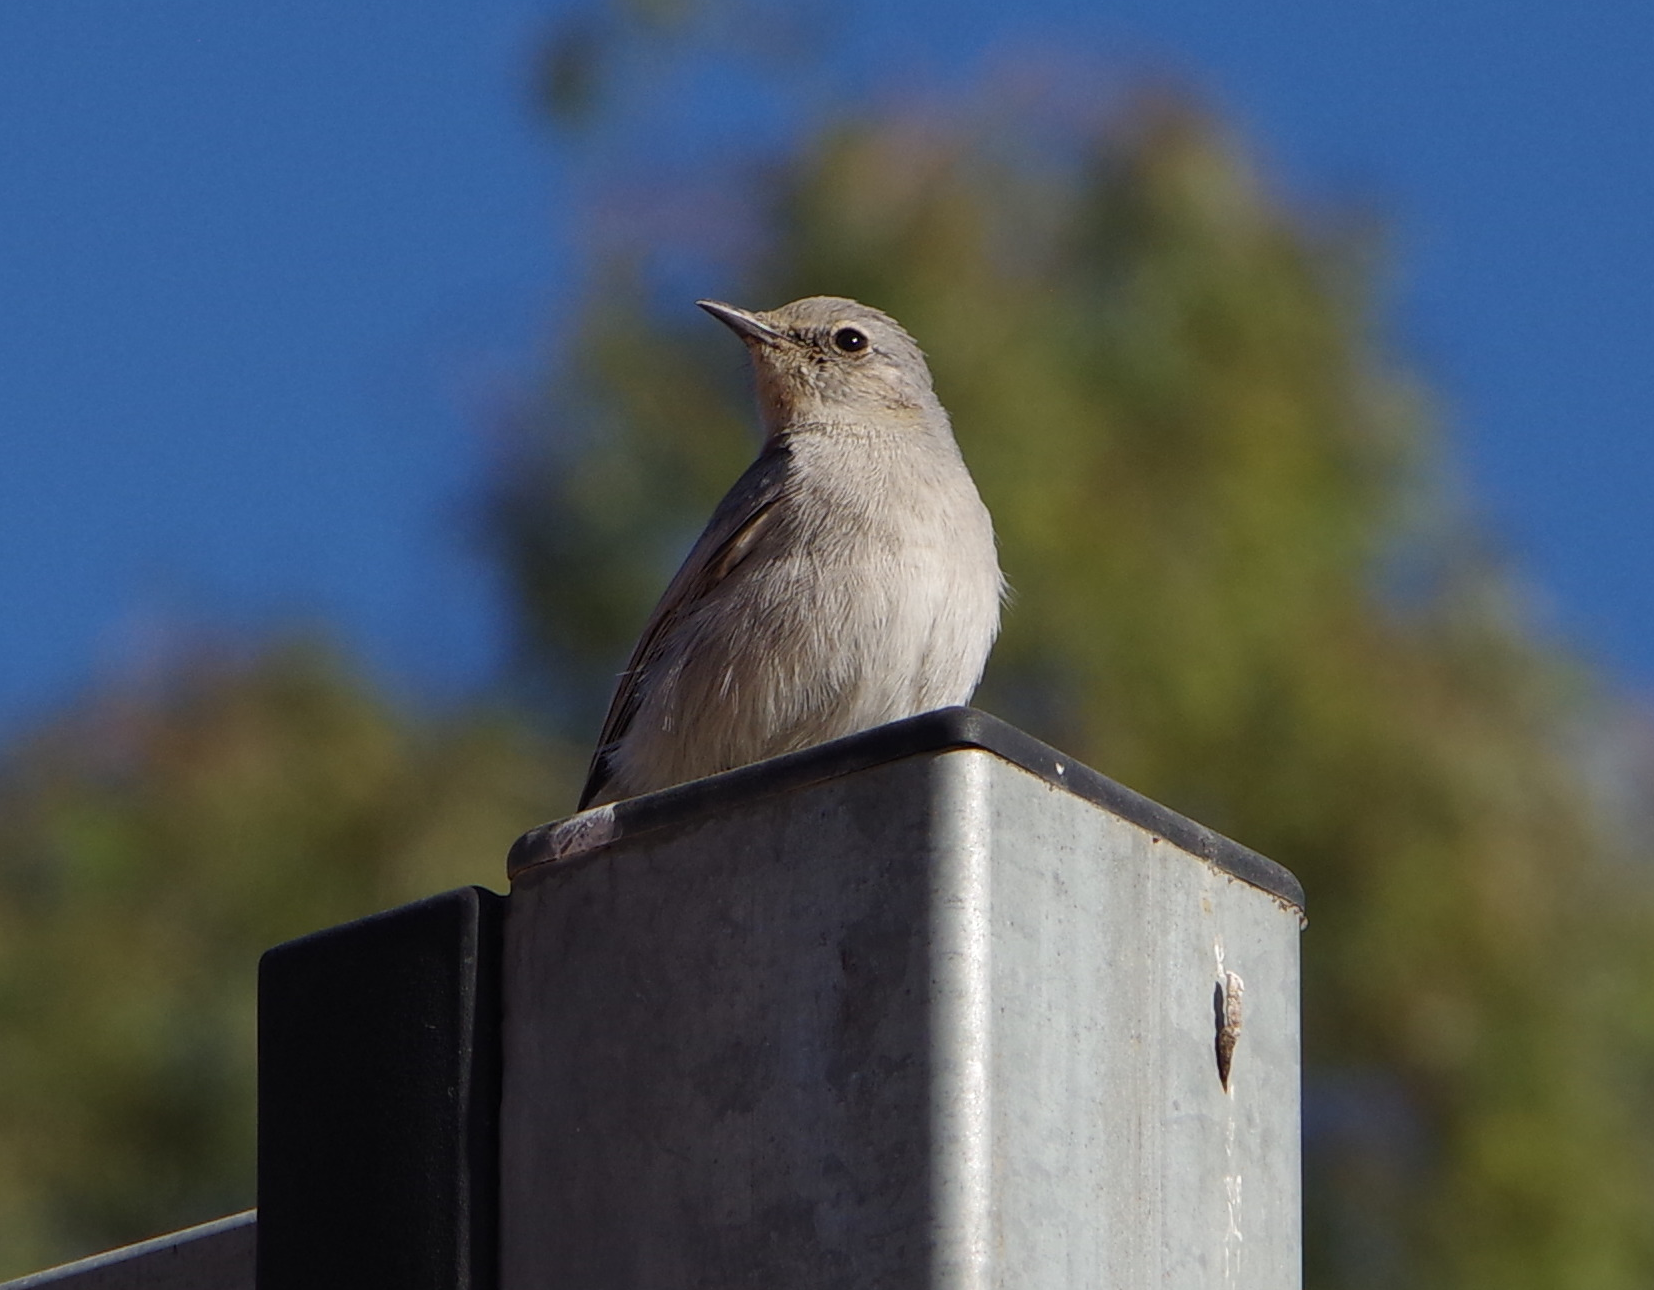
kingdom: Animalia
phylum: Chordata
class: Aves
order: Passeriformes
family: Muscicapidae
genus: Oenanthe
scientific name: Oenanthe melanura
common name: Blackstart
